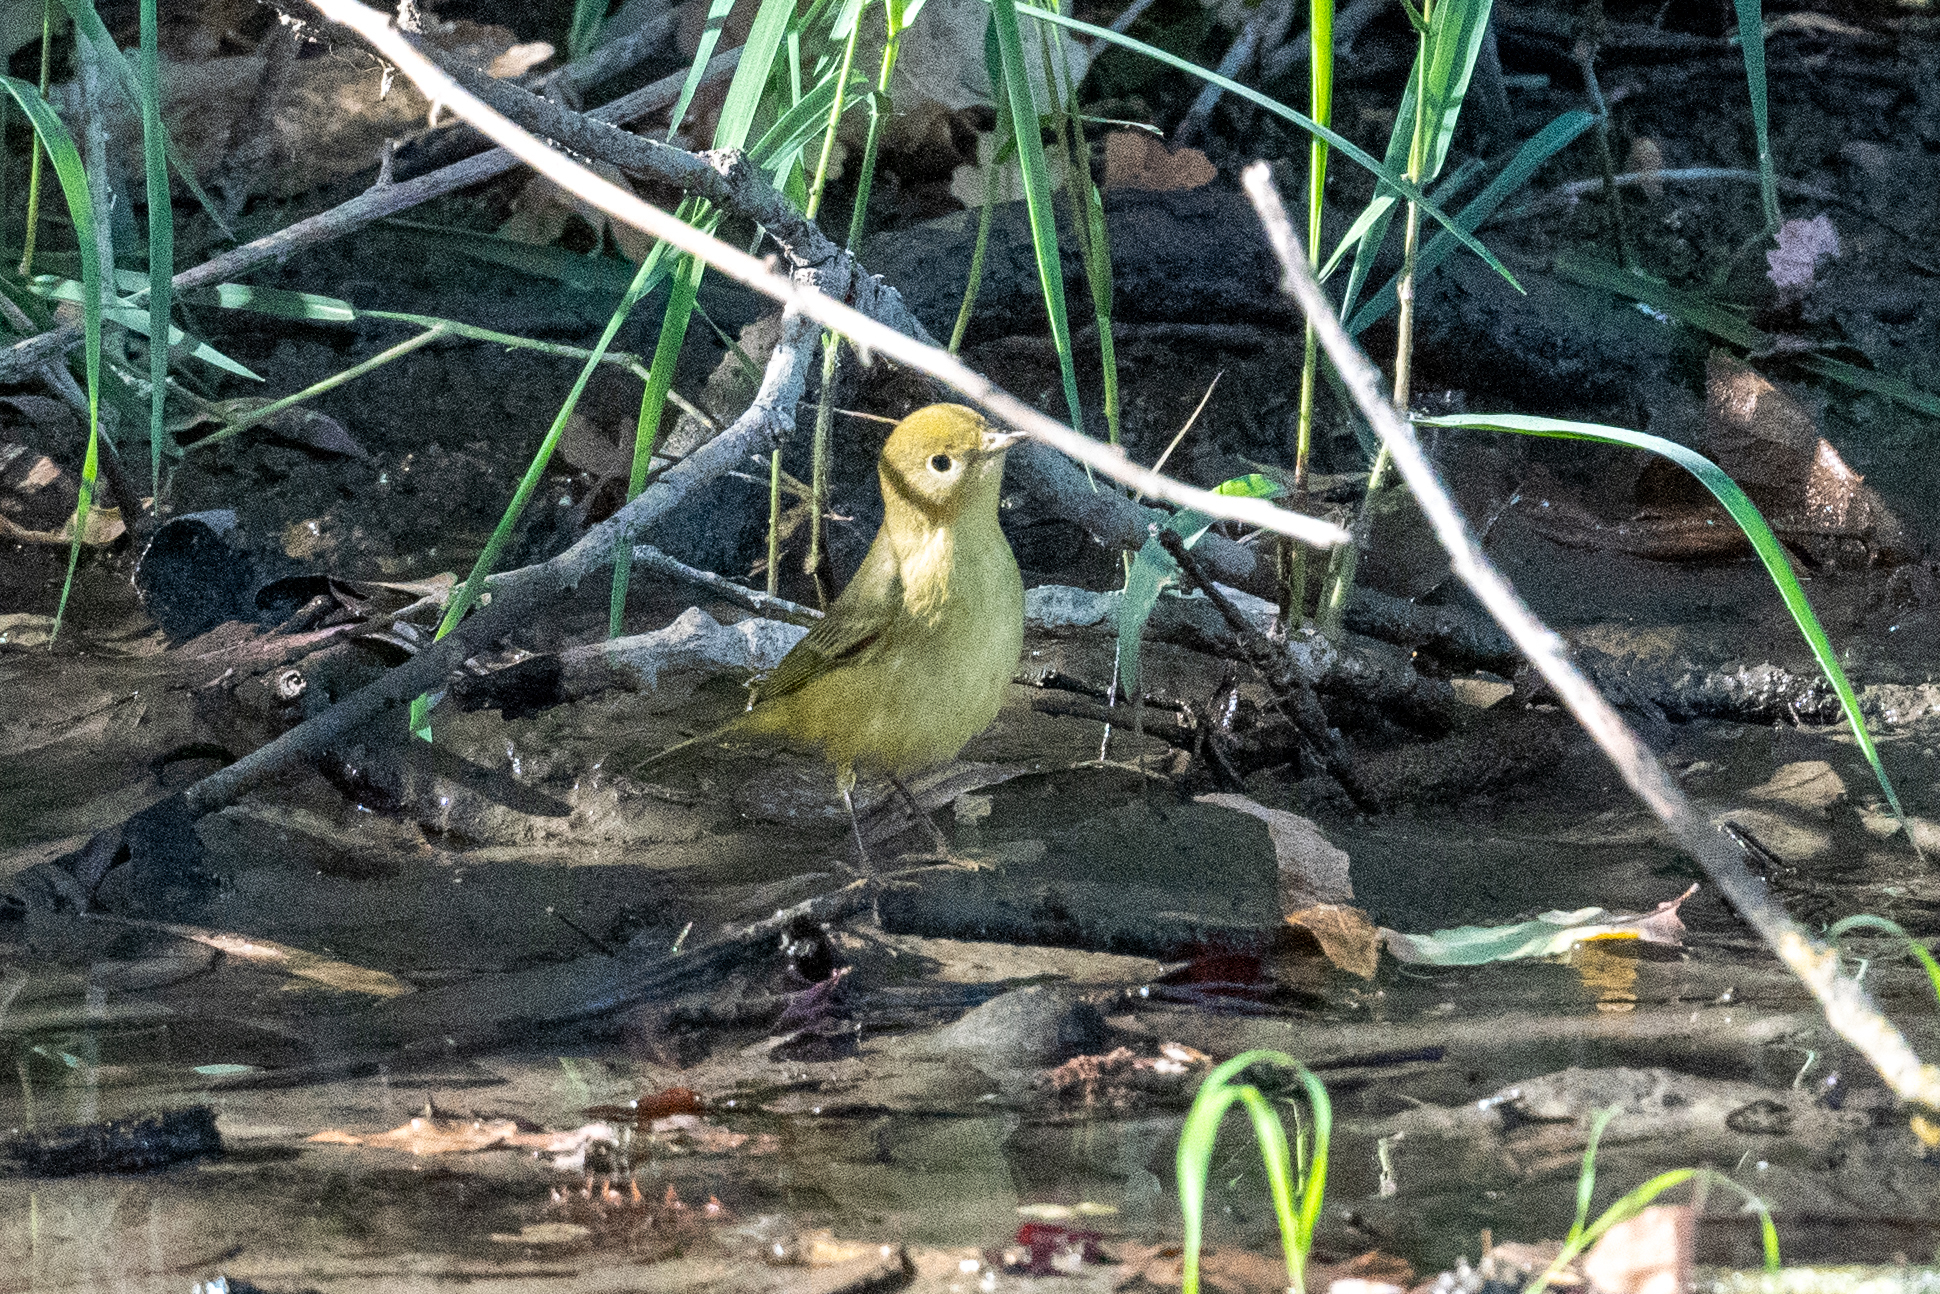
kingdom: Animalia
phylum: Chordata
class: Aves
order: Passeriformes
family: Parulidae
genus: Setophaga
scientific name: Setophaga petechia
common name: Yellow warbler
